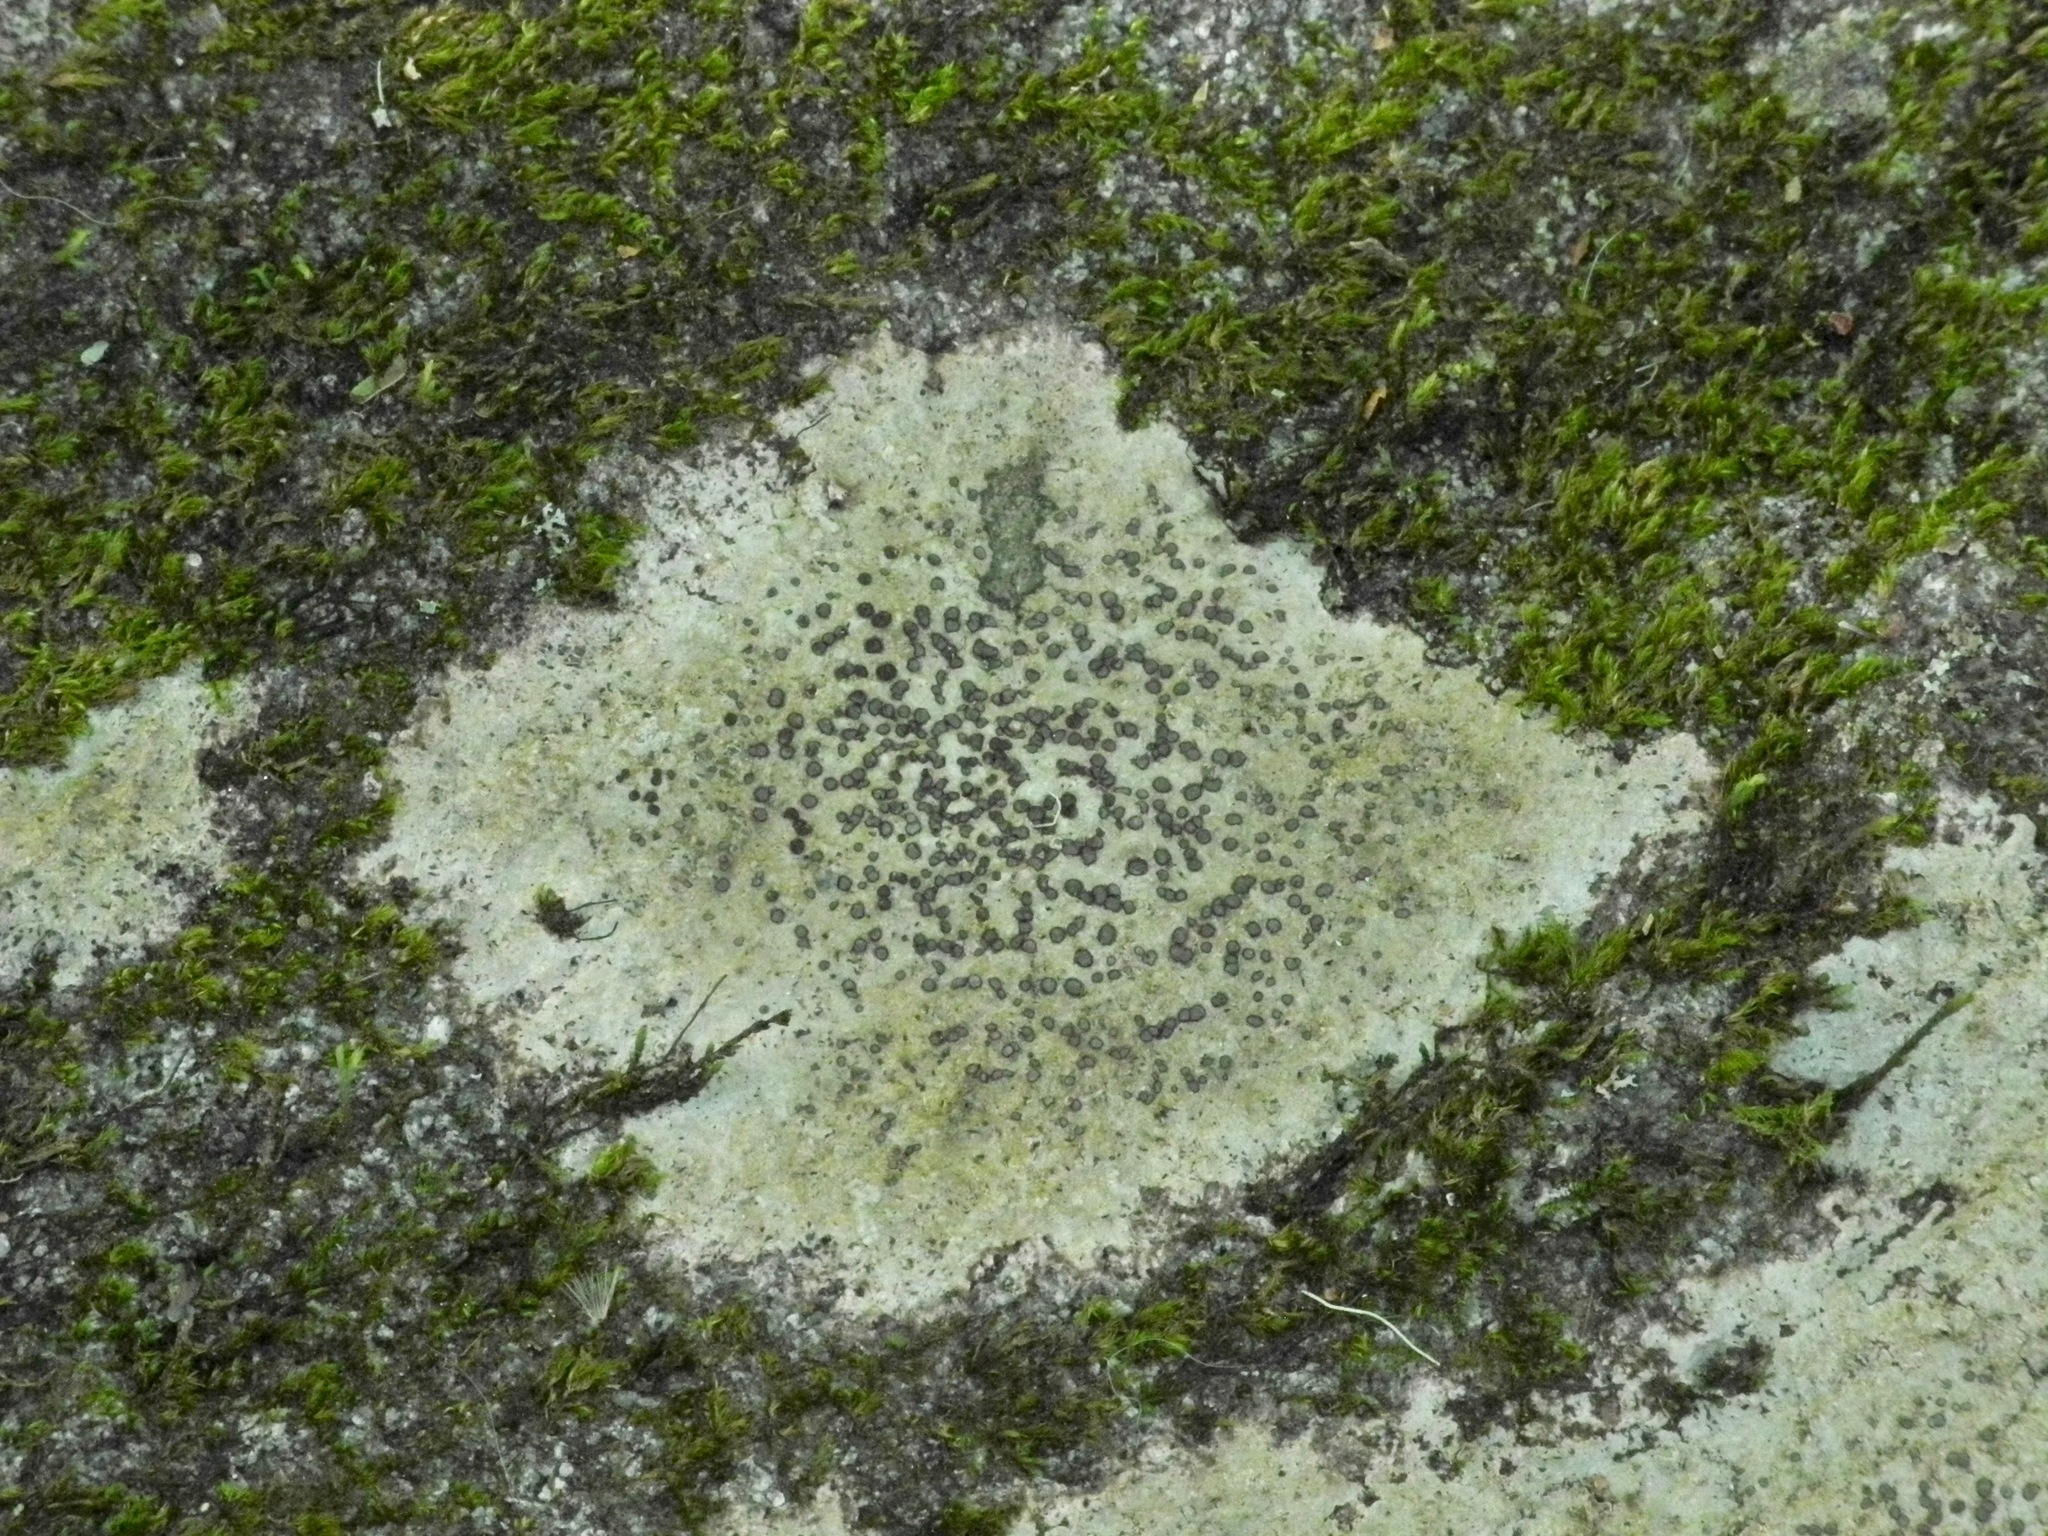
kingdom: Fungi
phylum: Ascomycota
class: Lecanoromycetes
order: Lecideales
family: Lecideaceae
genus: Porpidia
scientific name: Porpidia albocaerulescens
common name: Smokey-eyed boulder lichen
